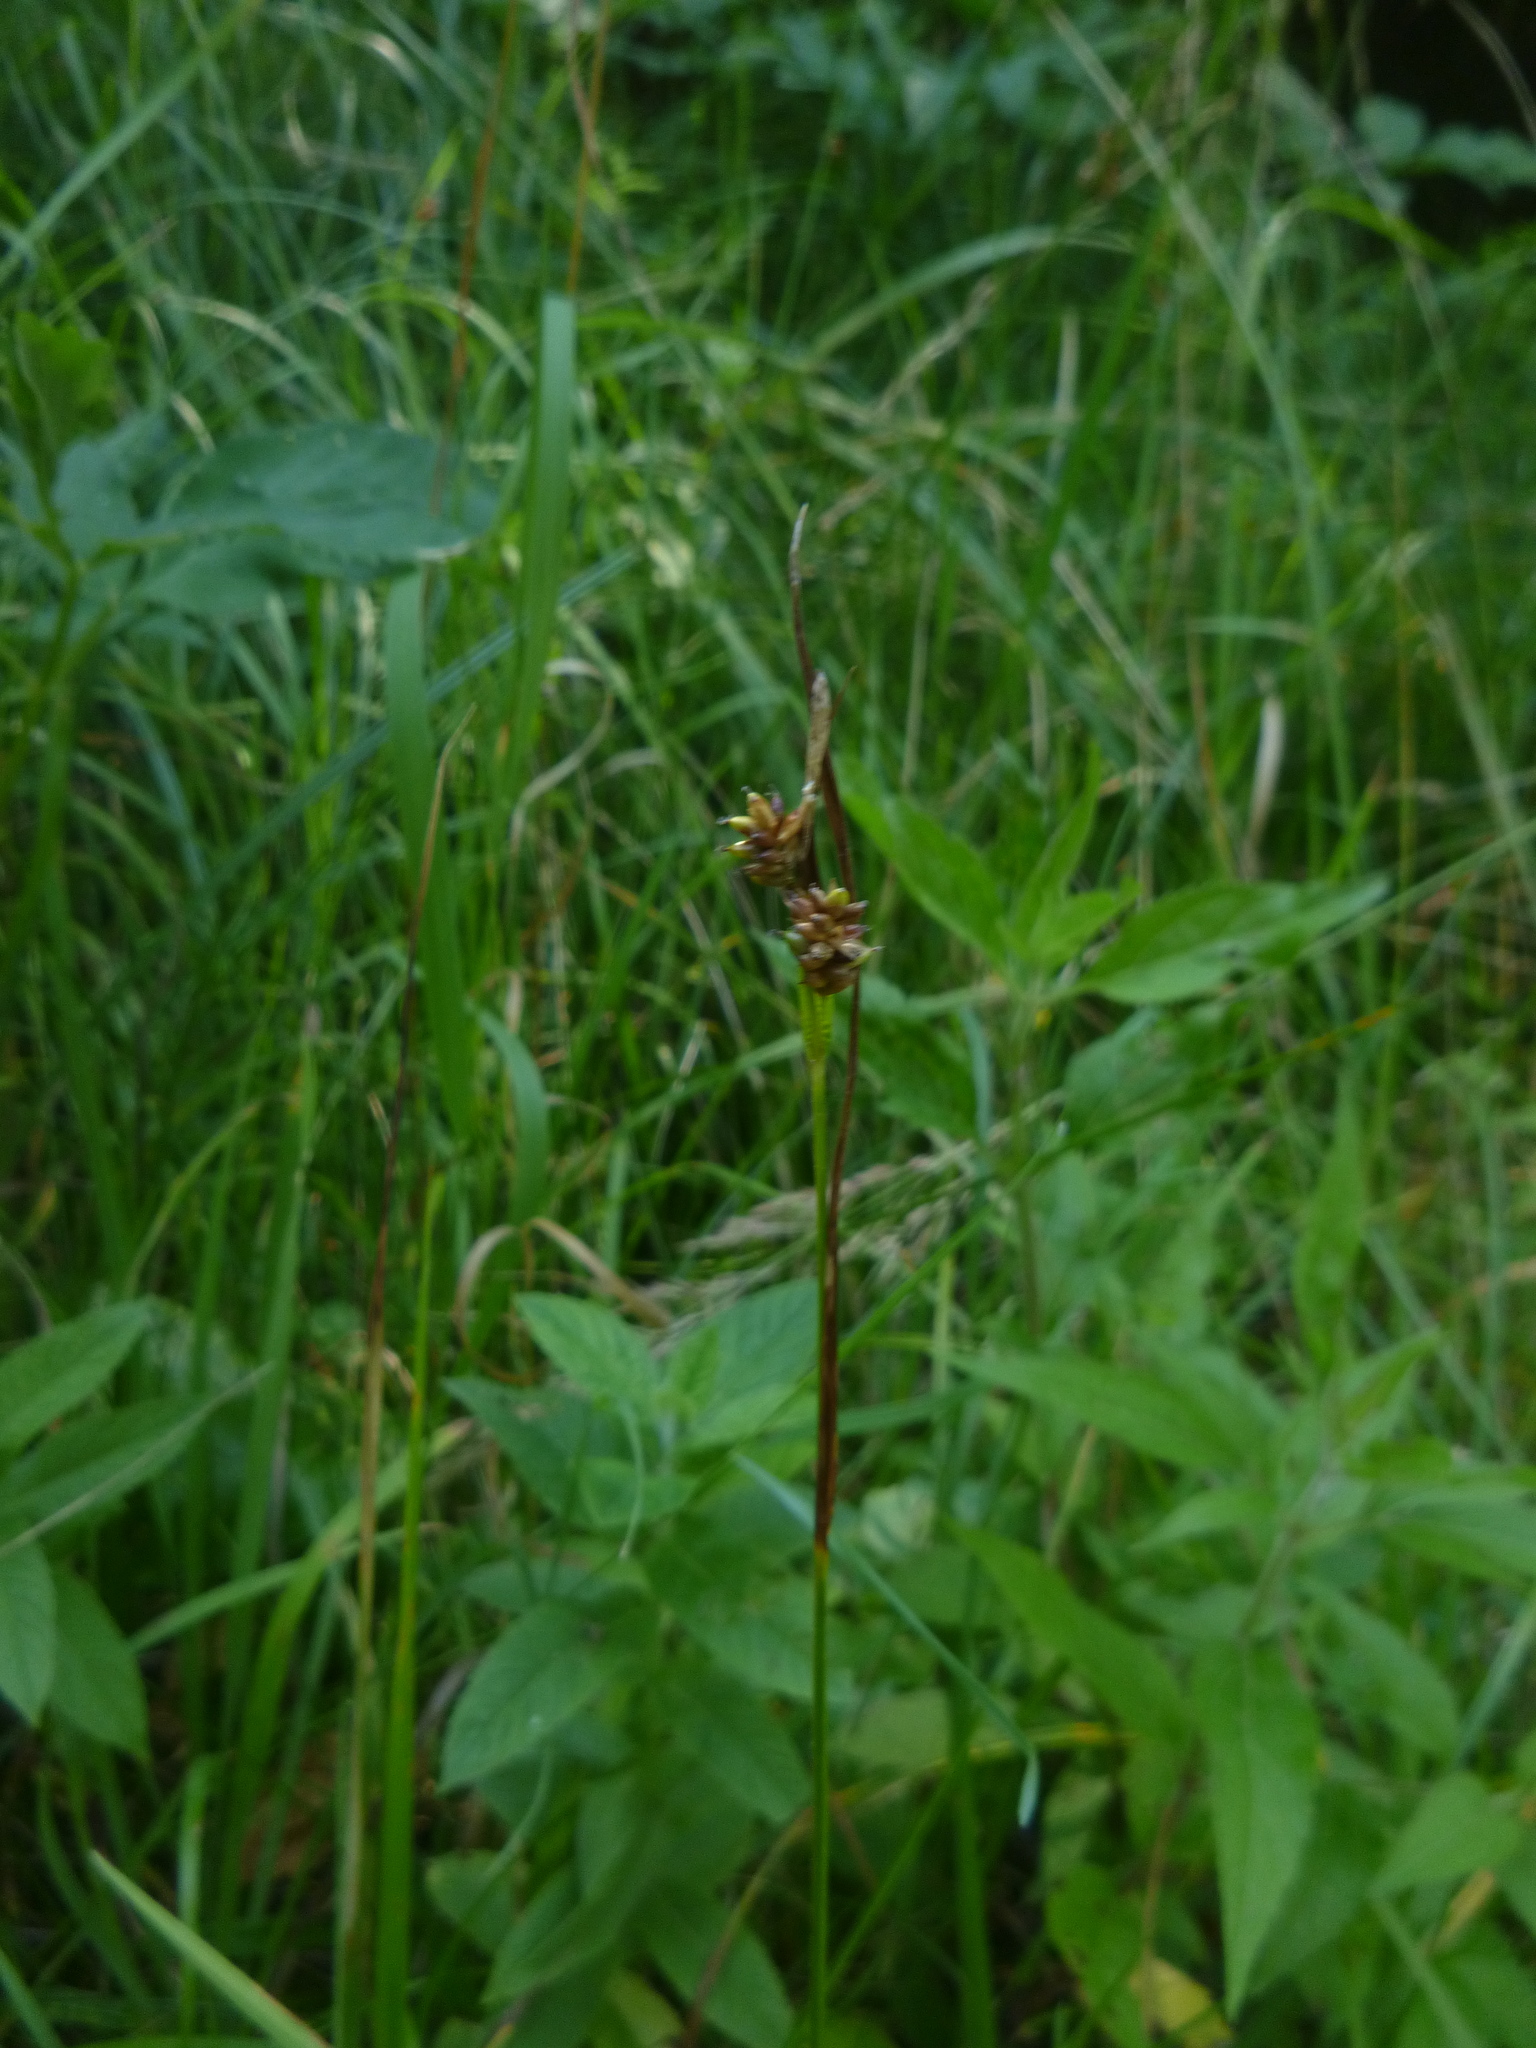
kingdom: Plantae
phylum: Tracheophyta
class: Liliopsida
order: Poales
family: Cyperaceae
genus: Carex
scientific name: Carex pallescens
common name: Pale sedge
